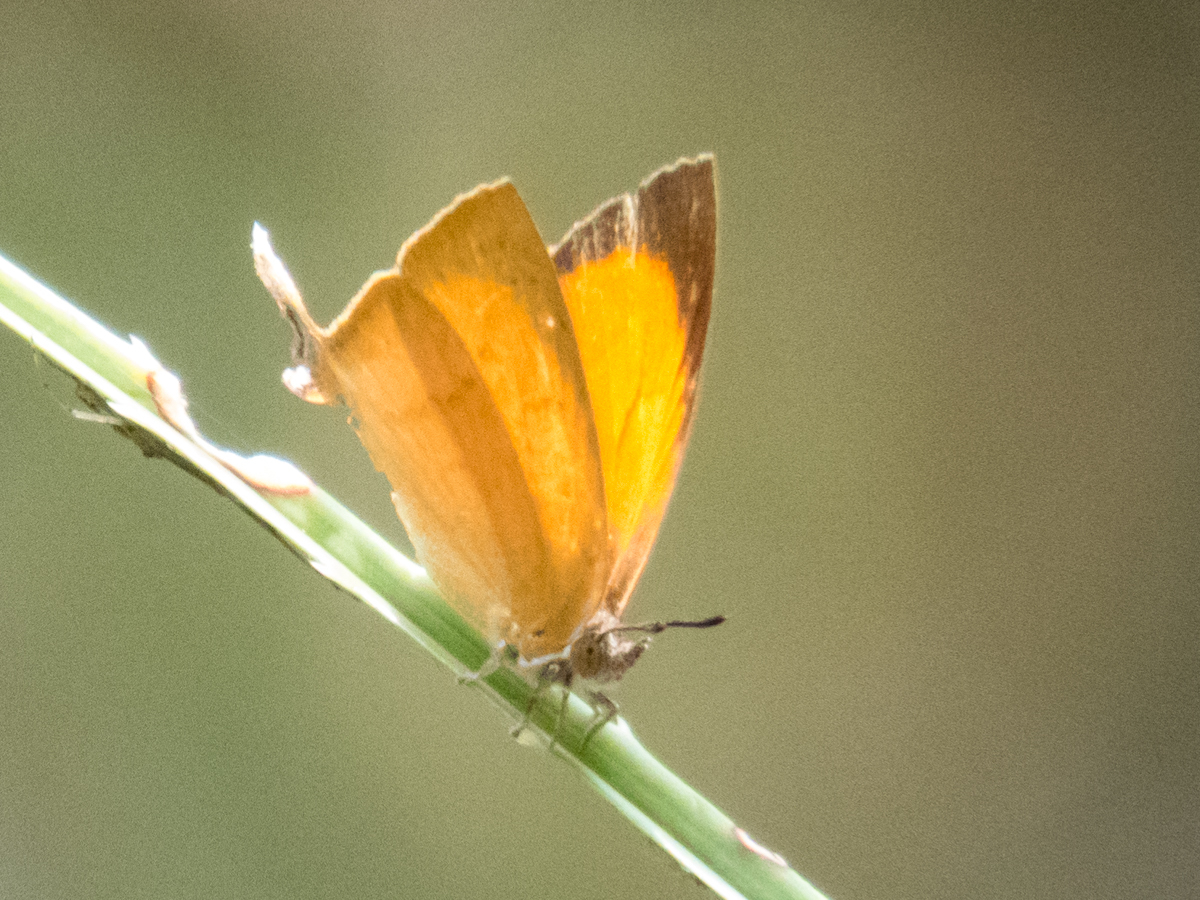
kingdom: Animalia
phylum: Arthropoda
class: Insecta
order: Lepidoptera
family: Lycaenidae
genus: Loxura
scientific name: Loxura atymnus
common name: Common yamfly
